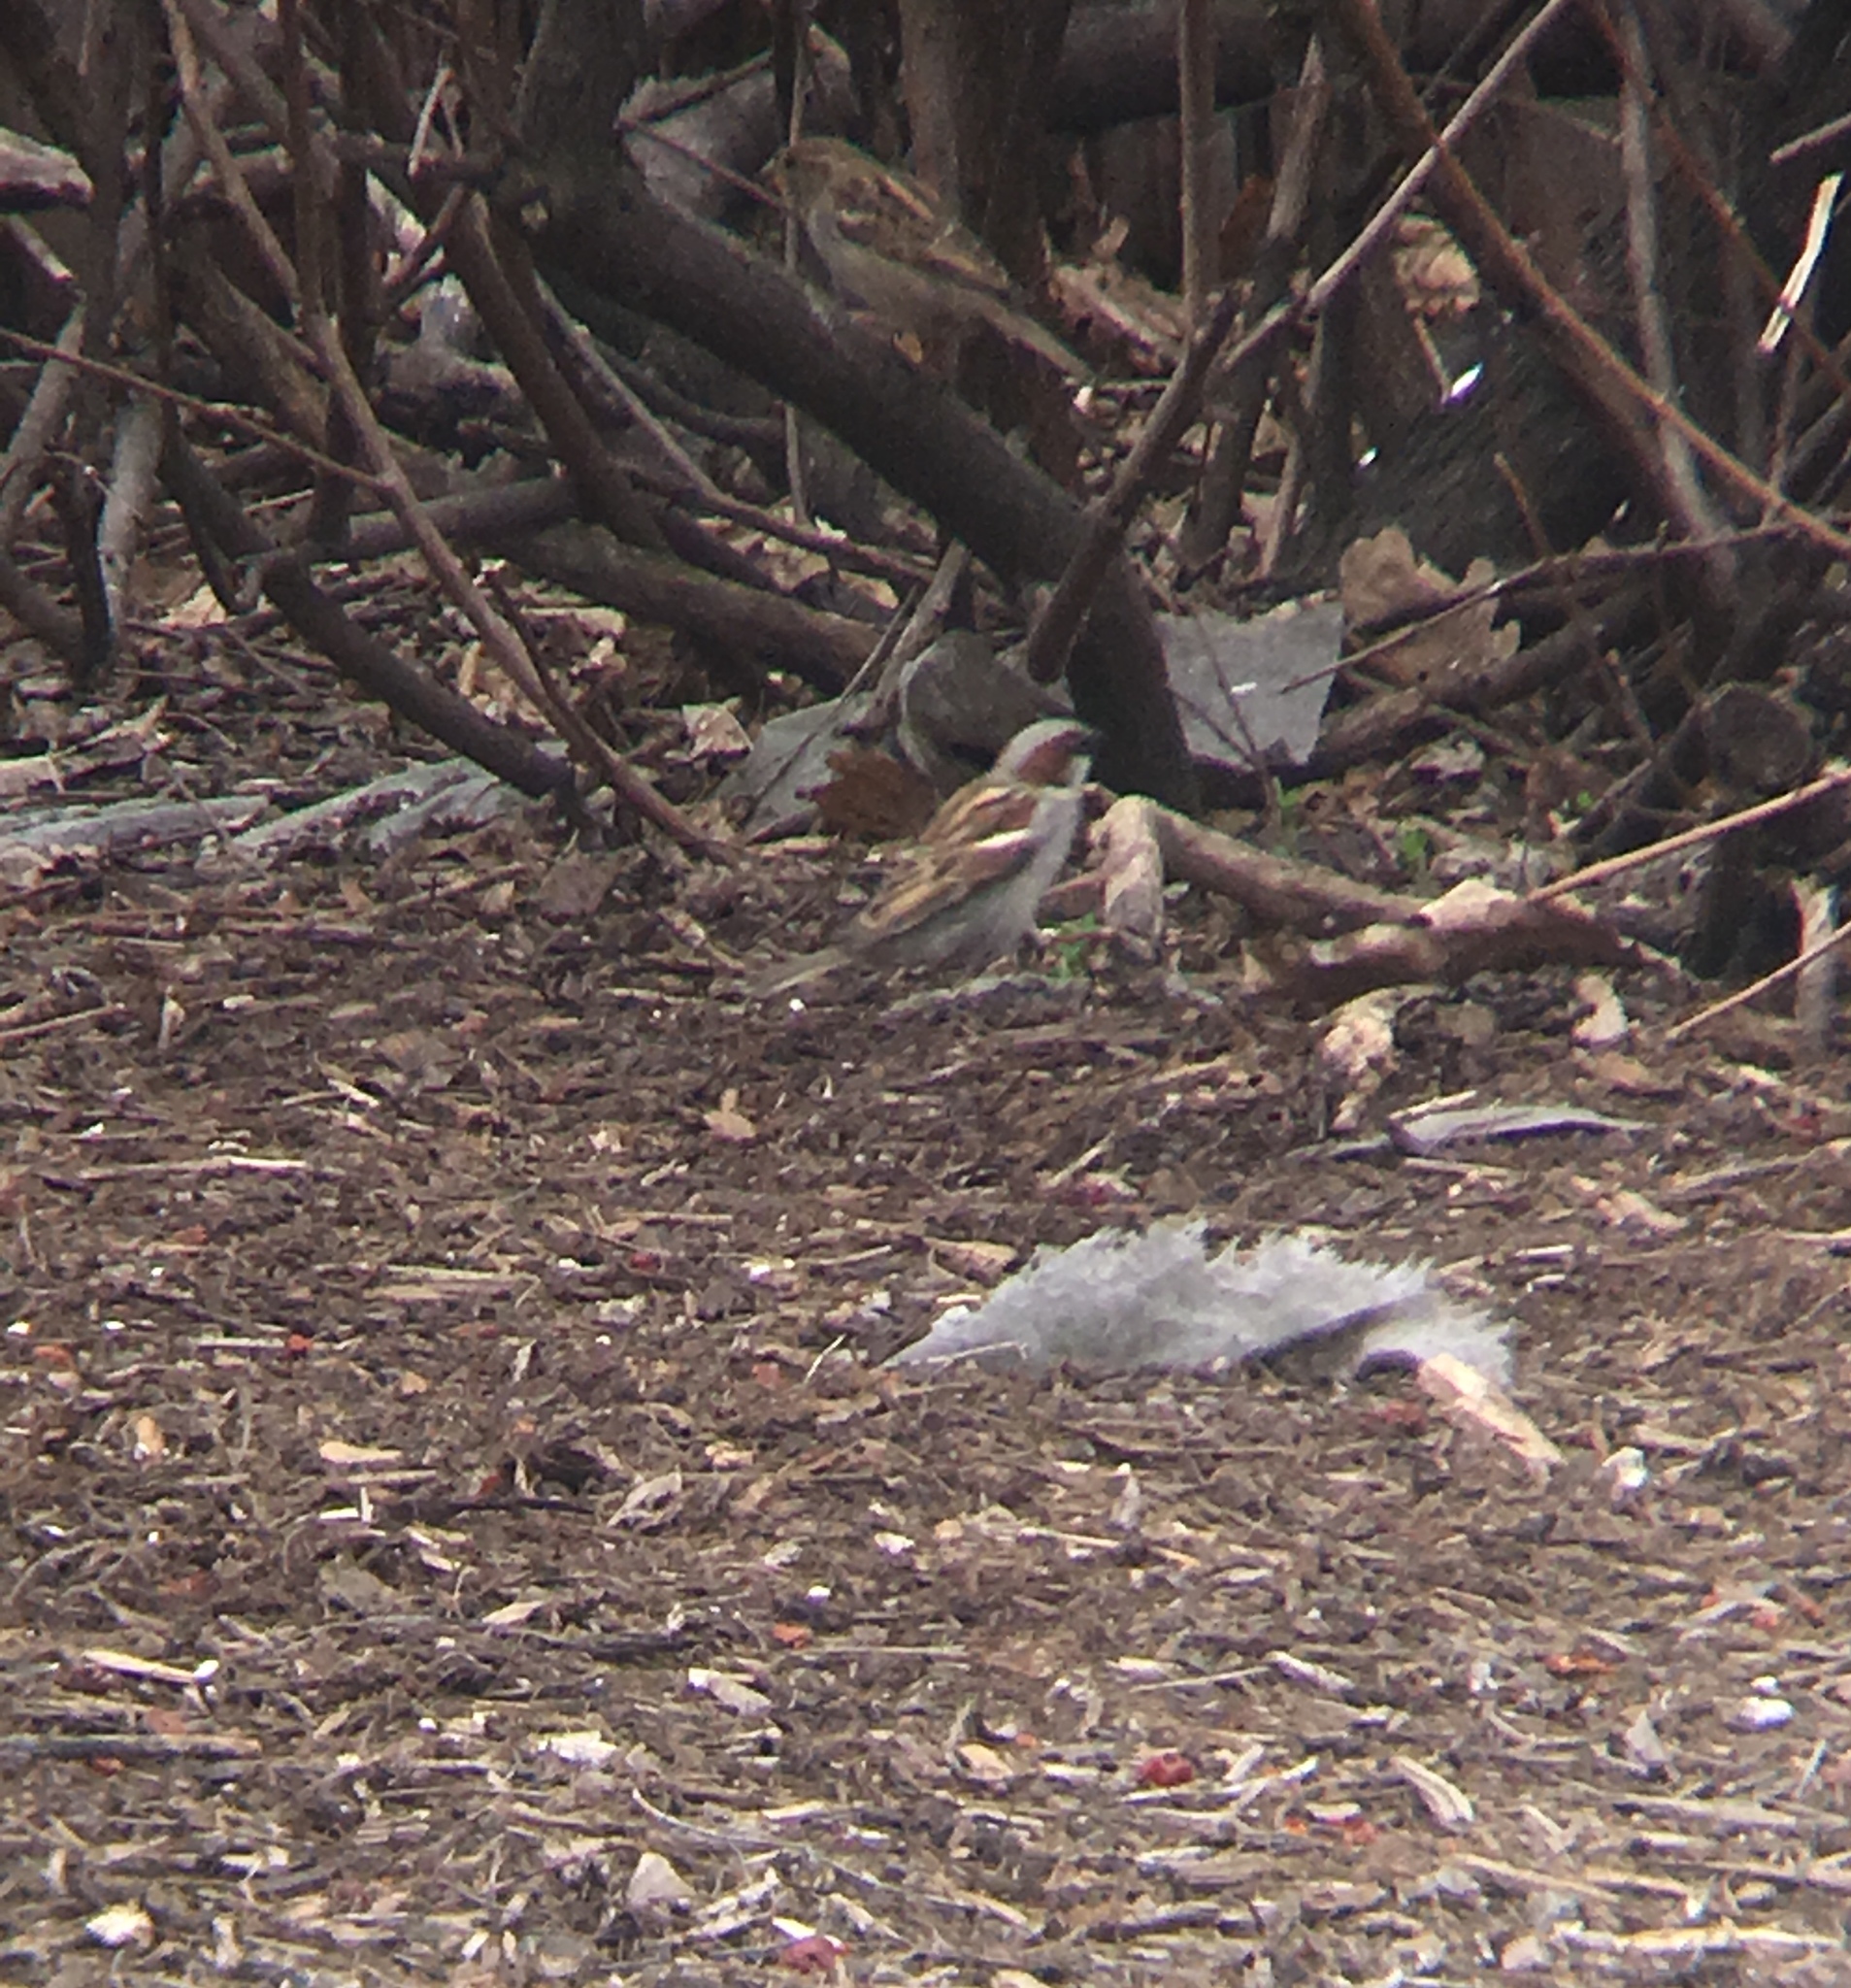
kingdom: Animalia
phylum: Chordata
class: Aves
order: Passeriformes
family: Passeridae
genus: Passer
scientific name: Passer domesticus
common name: House sparrow
